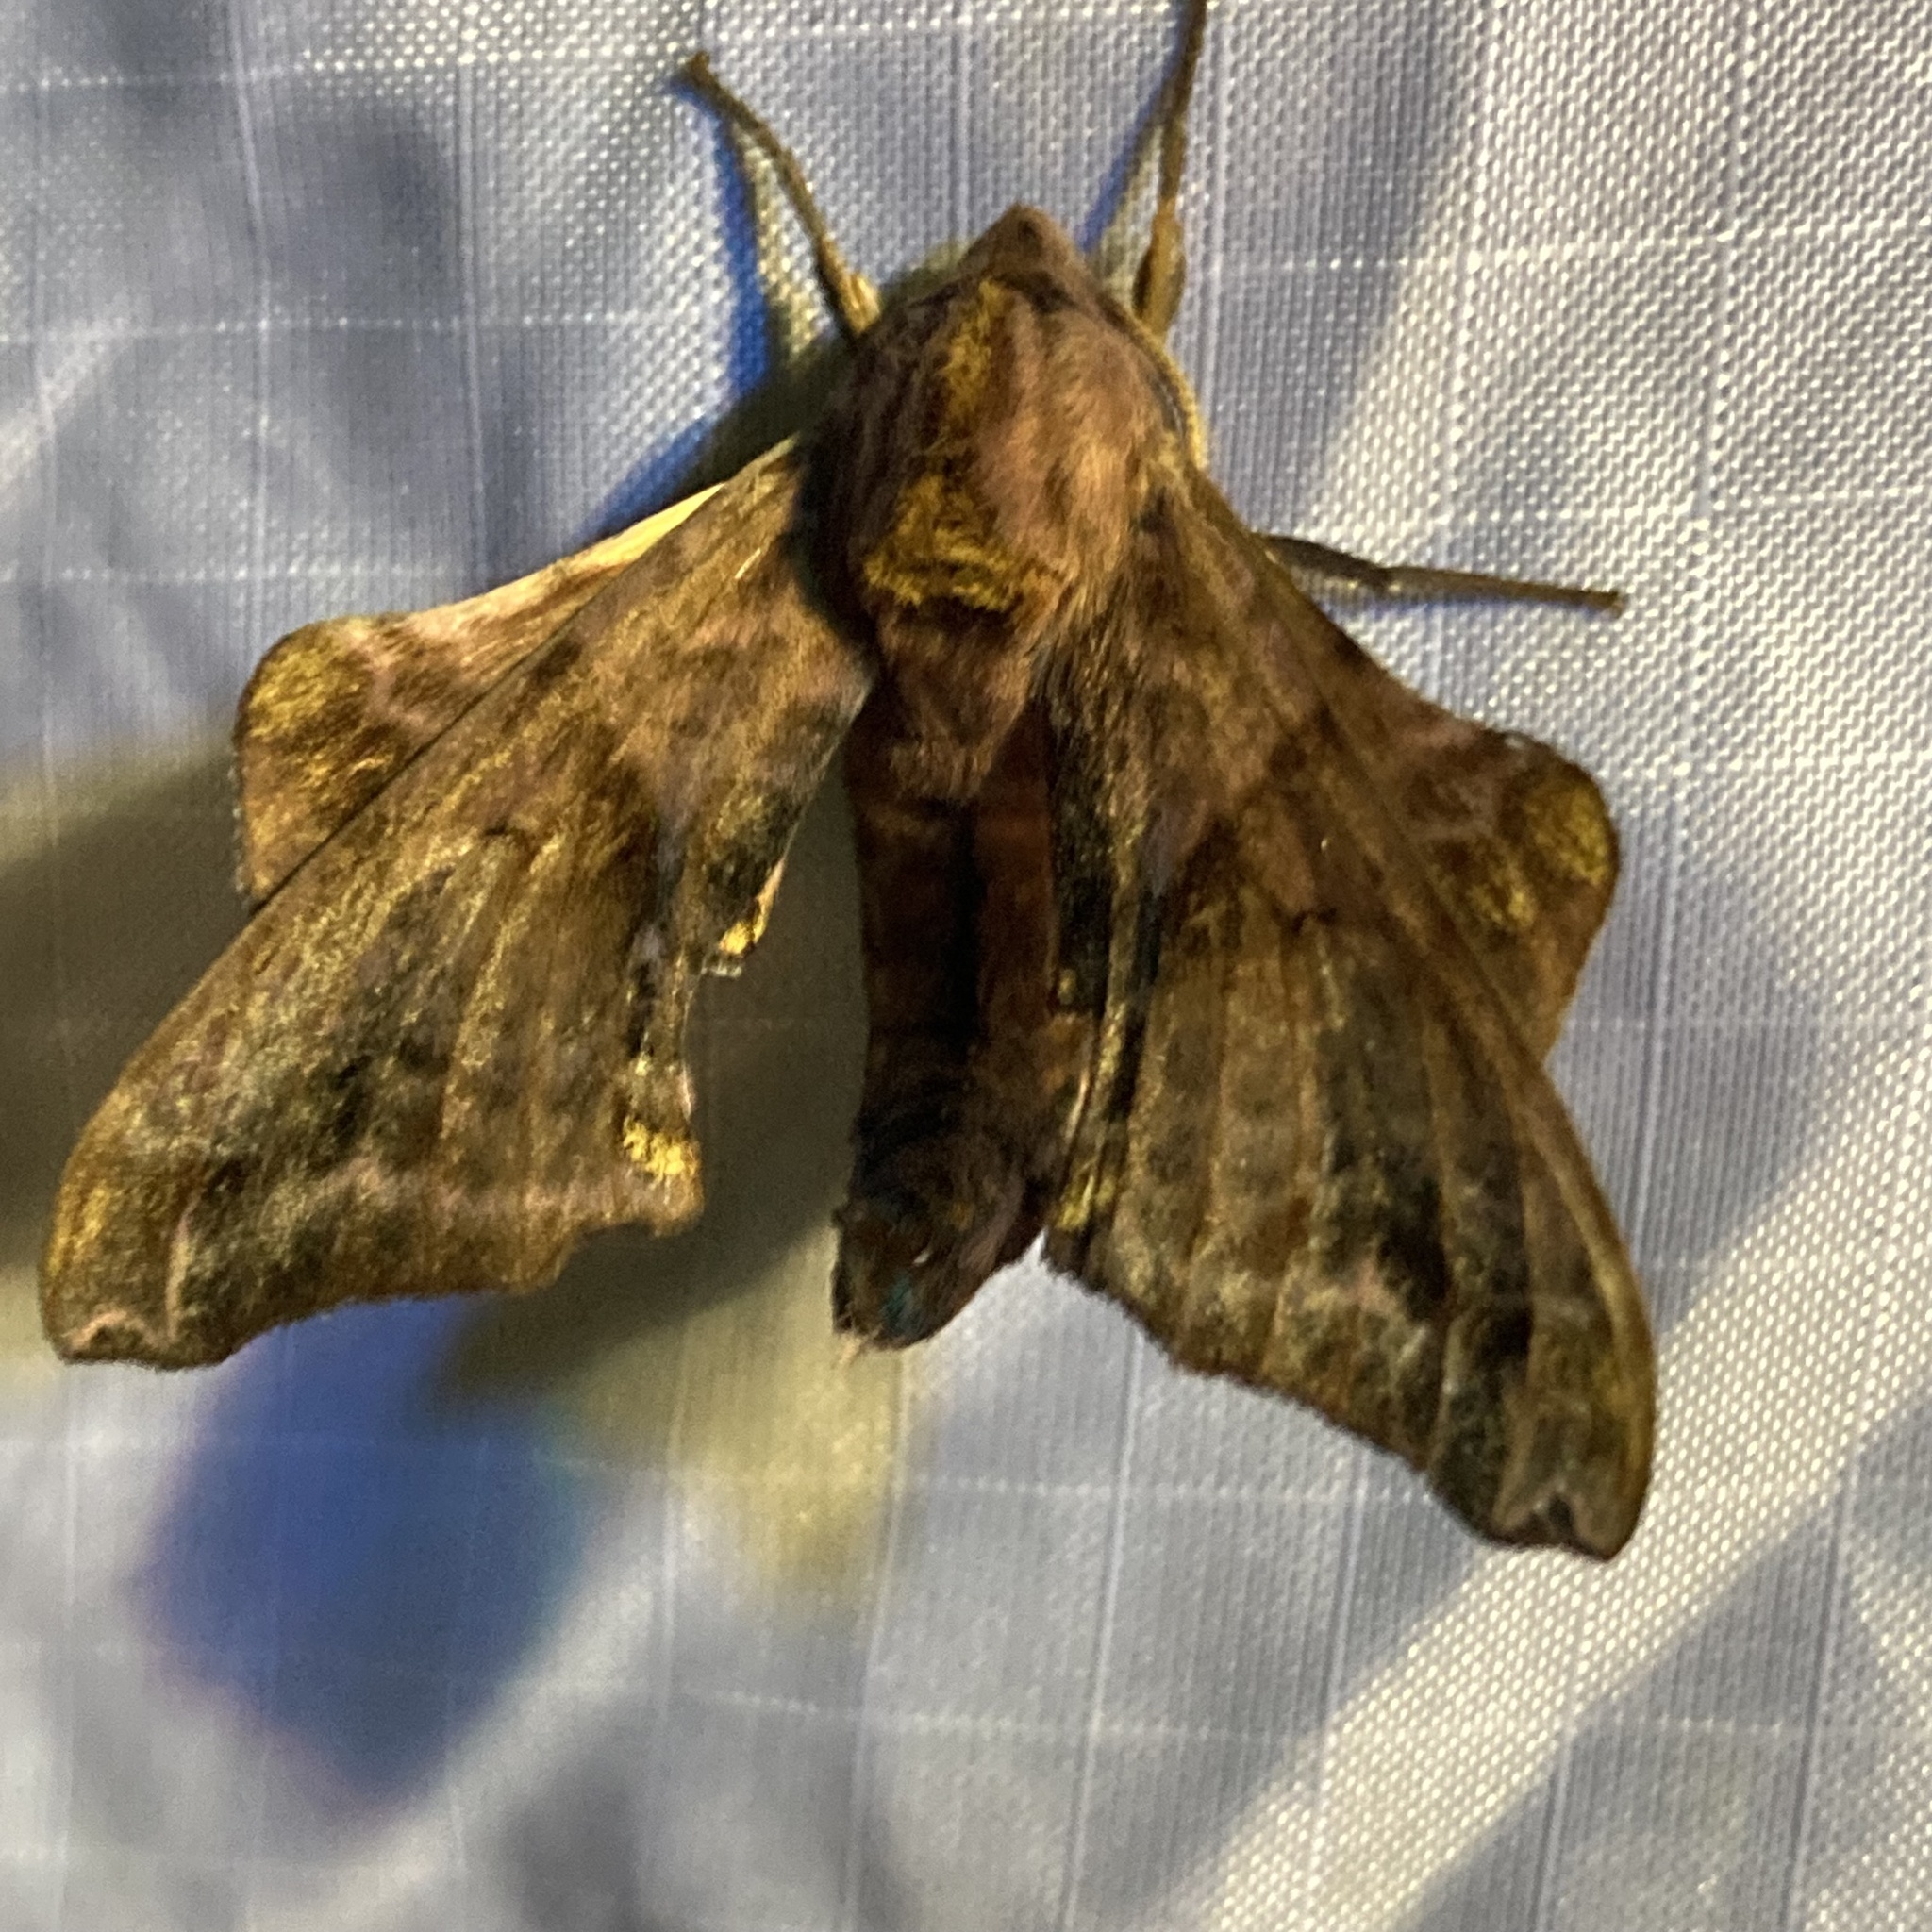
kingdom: Animalia
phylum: Arthropoda
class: Insecta
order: Lepidoptera
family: Sphingidae
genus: Paonias
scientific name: Paonias myops
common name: Small-eyed sphinx
